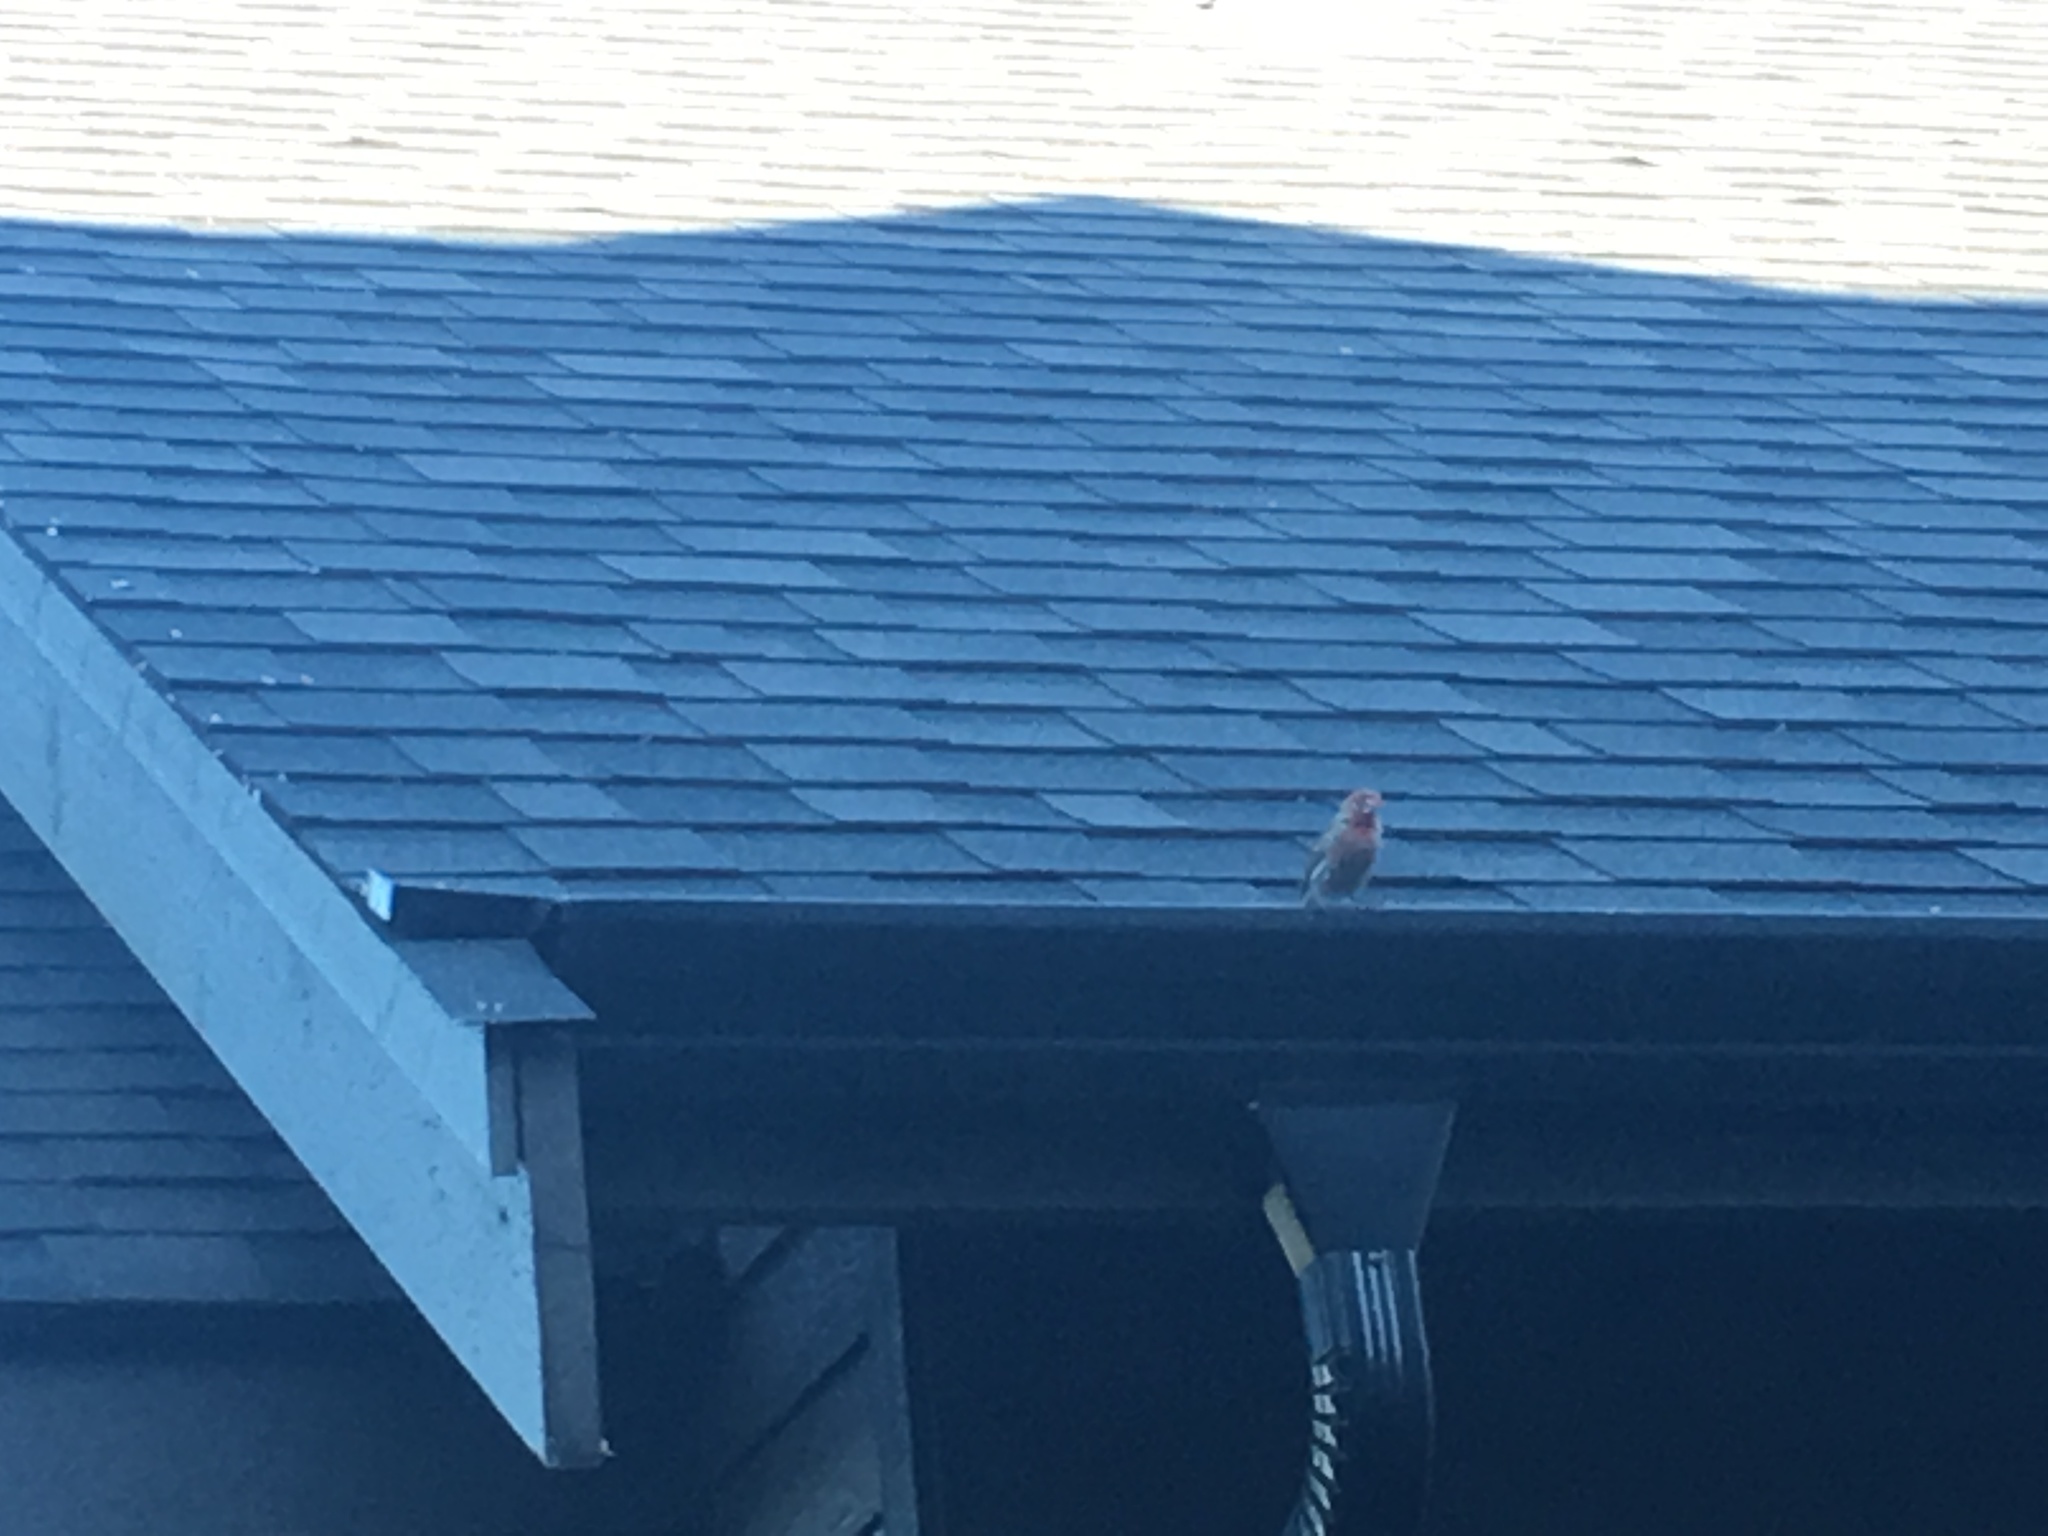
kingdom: Animalia
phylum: Chordata
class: Aves
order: Passeriformes
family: Fringillidae
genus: Haemorhous
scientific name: Haemorhous mexicanus
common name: House finch
